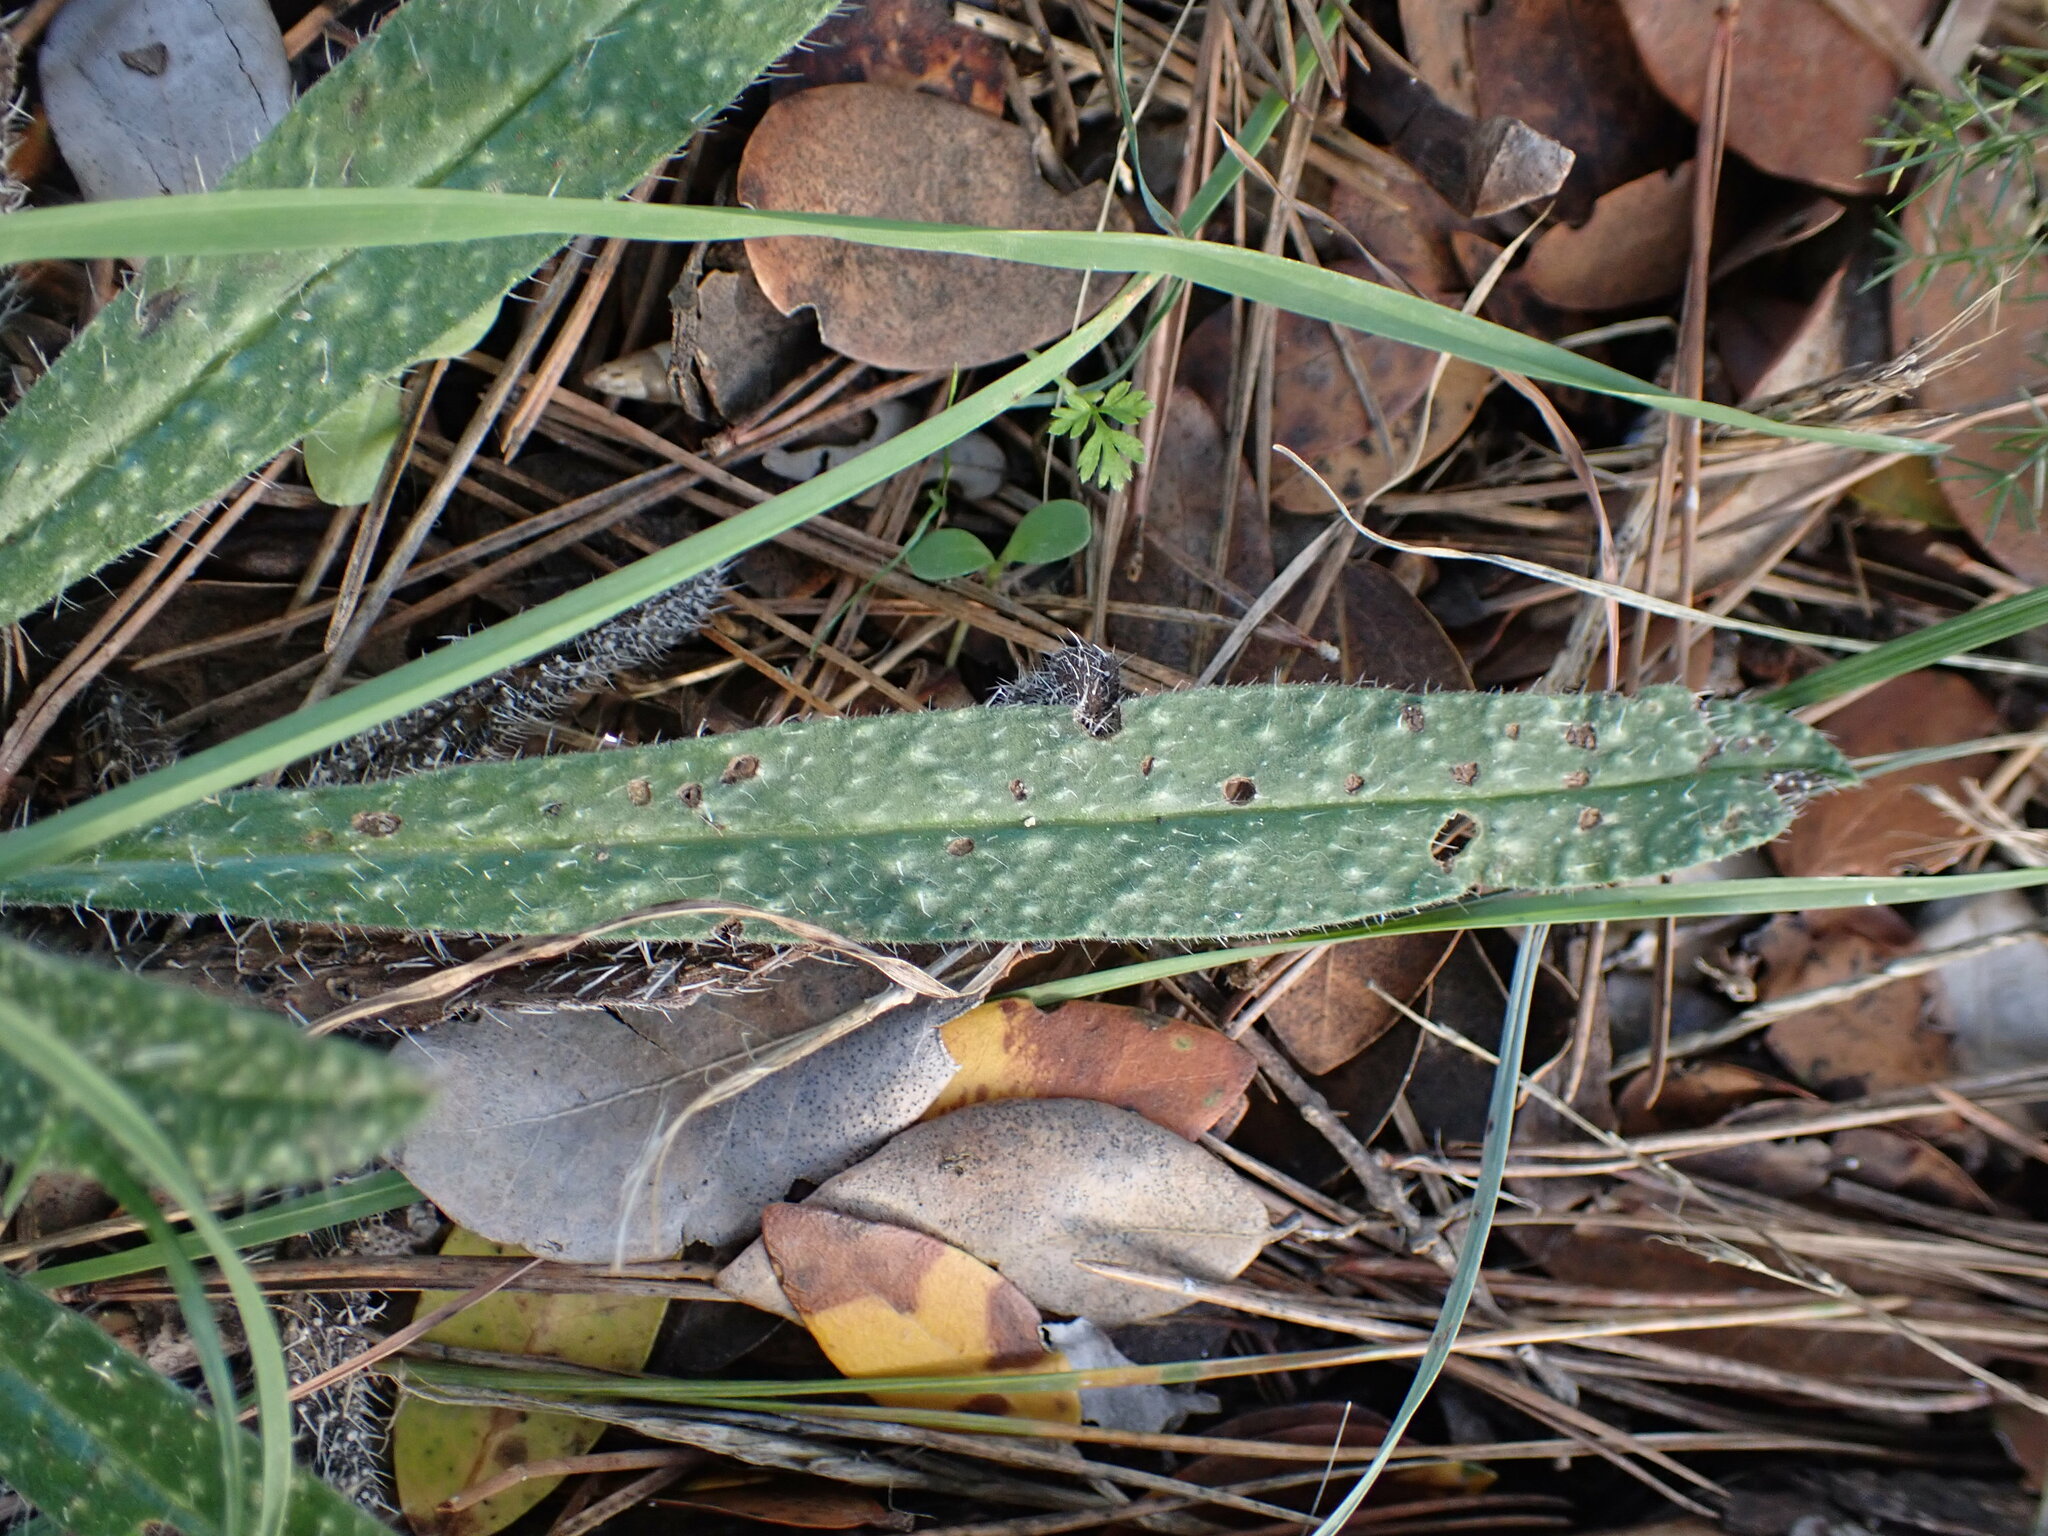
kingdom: Plantae
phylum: Tracheophyta
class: Magnoliopsida
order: Boraginales
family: Boraginaceae
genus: Echium
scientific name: Echium vulgare
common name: Common viper's bugloss
